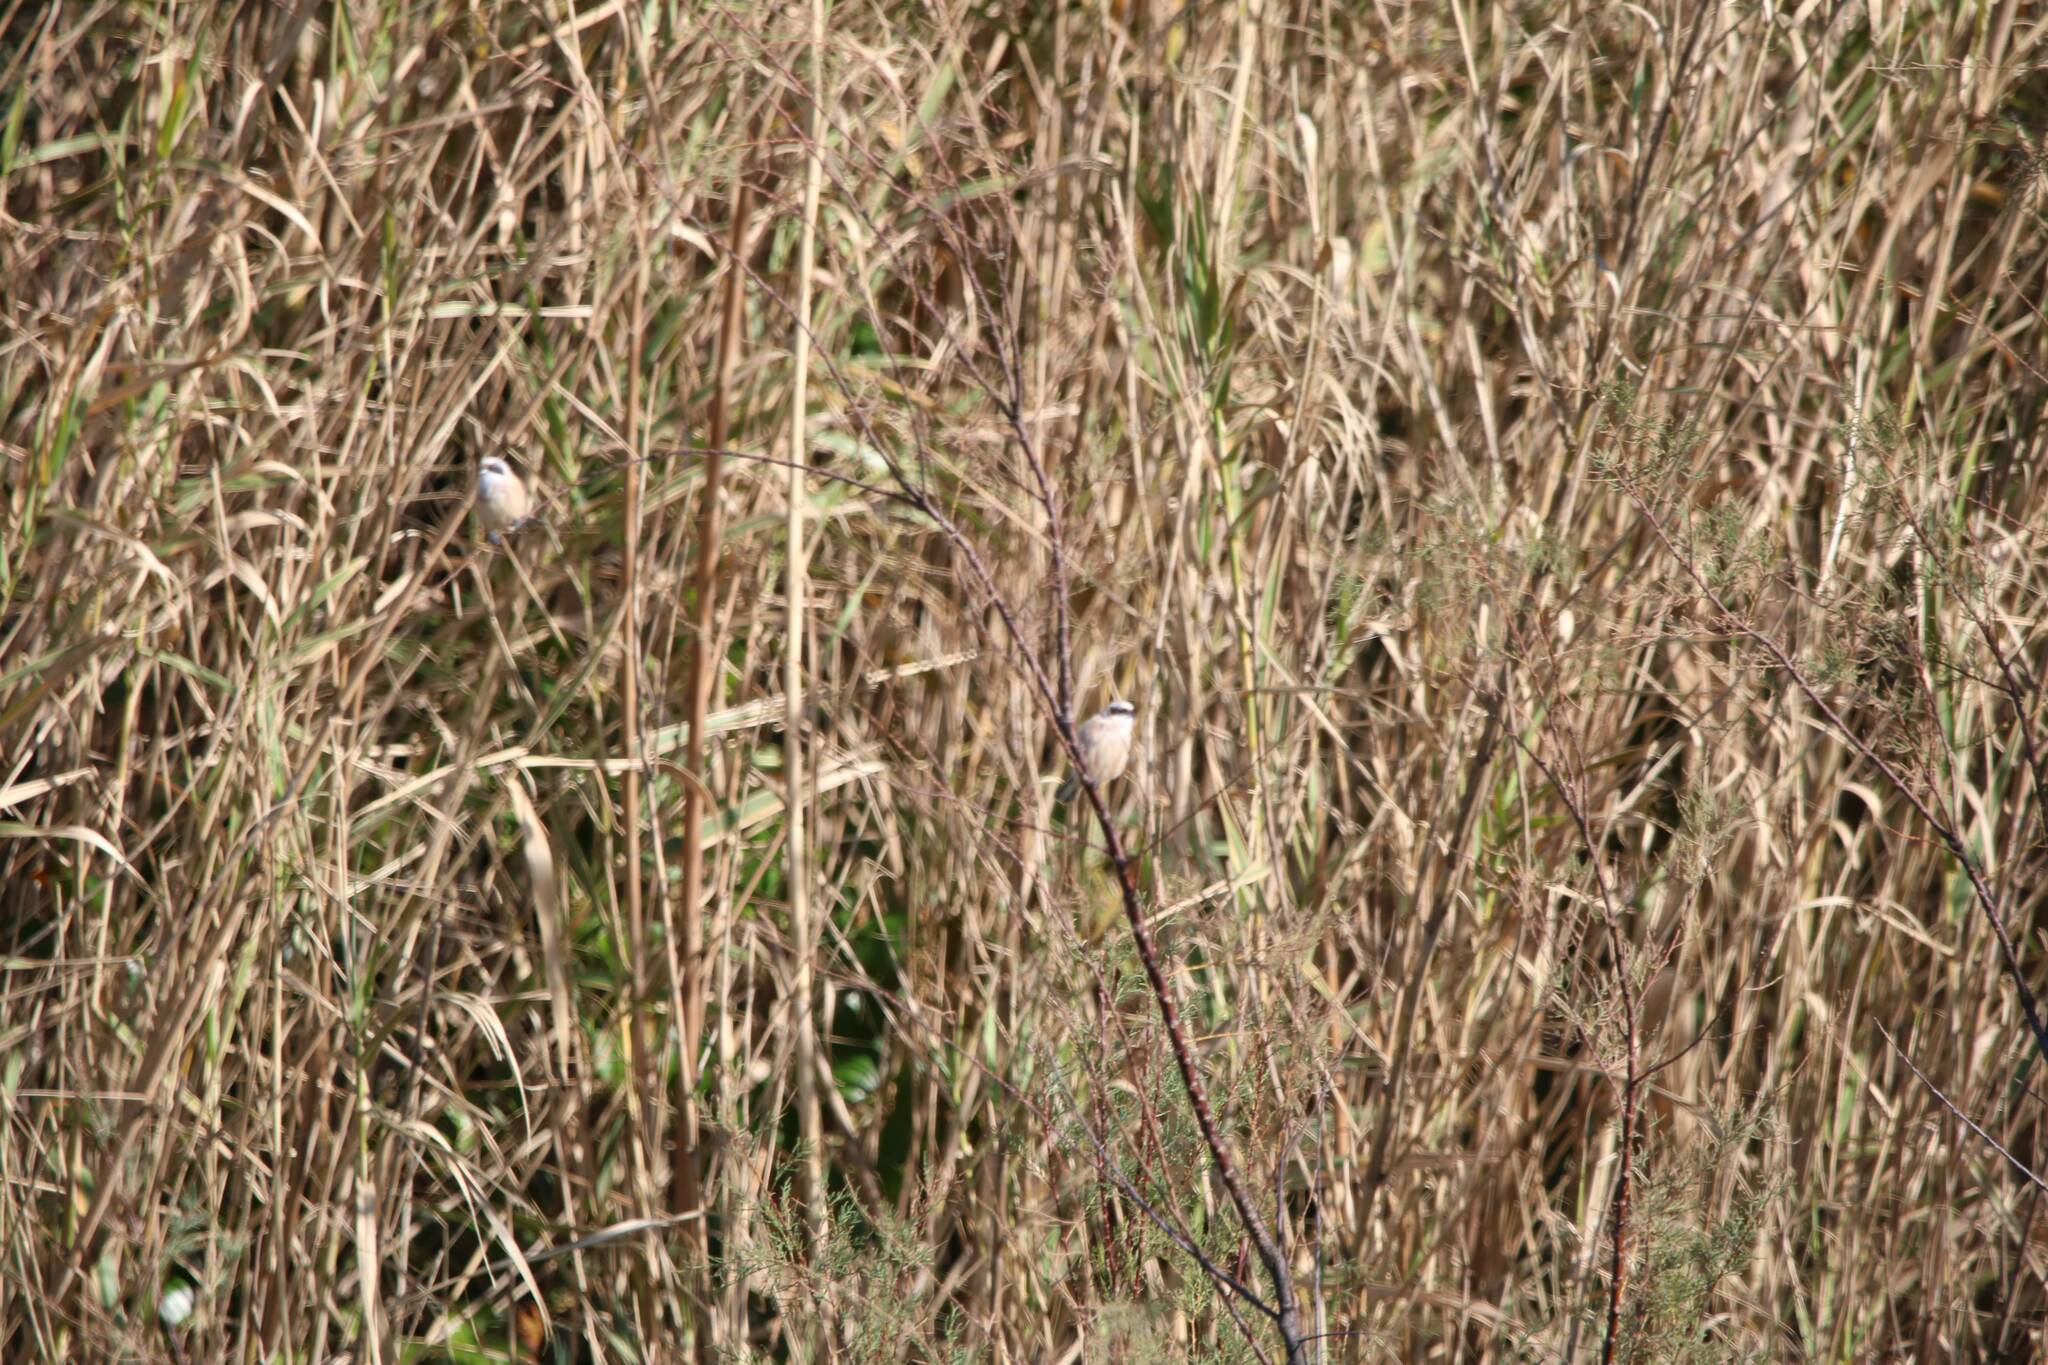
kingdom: Animalia
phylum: Chordata
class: Aves
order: Passeriformes
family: Remizidae
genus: Remiz
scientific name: Remiz pendulinus
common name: Eurasian penduline tit
